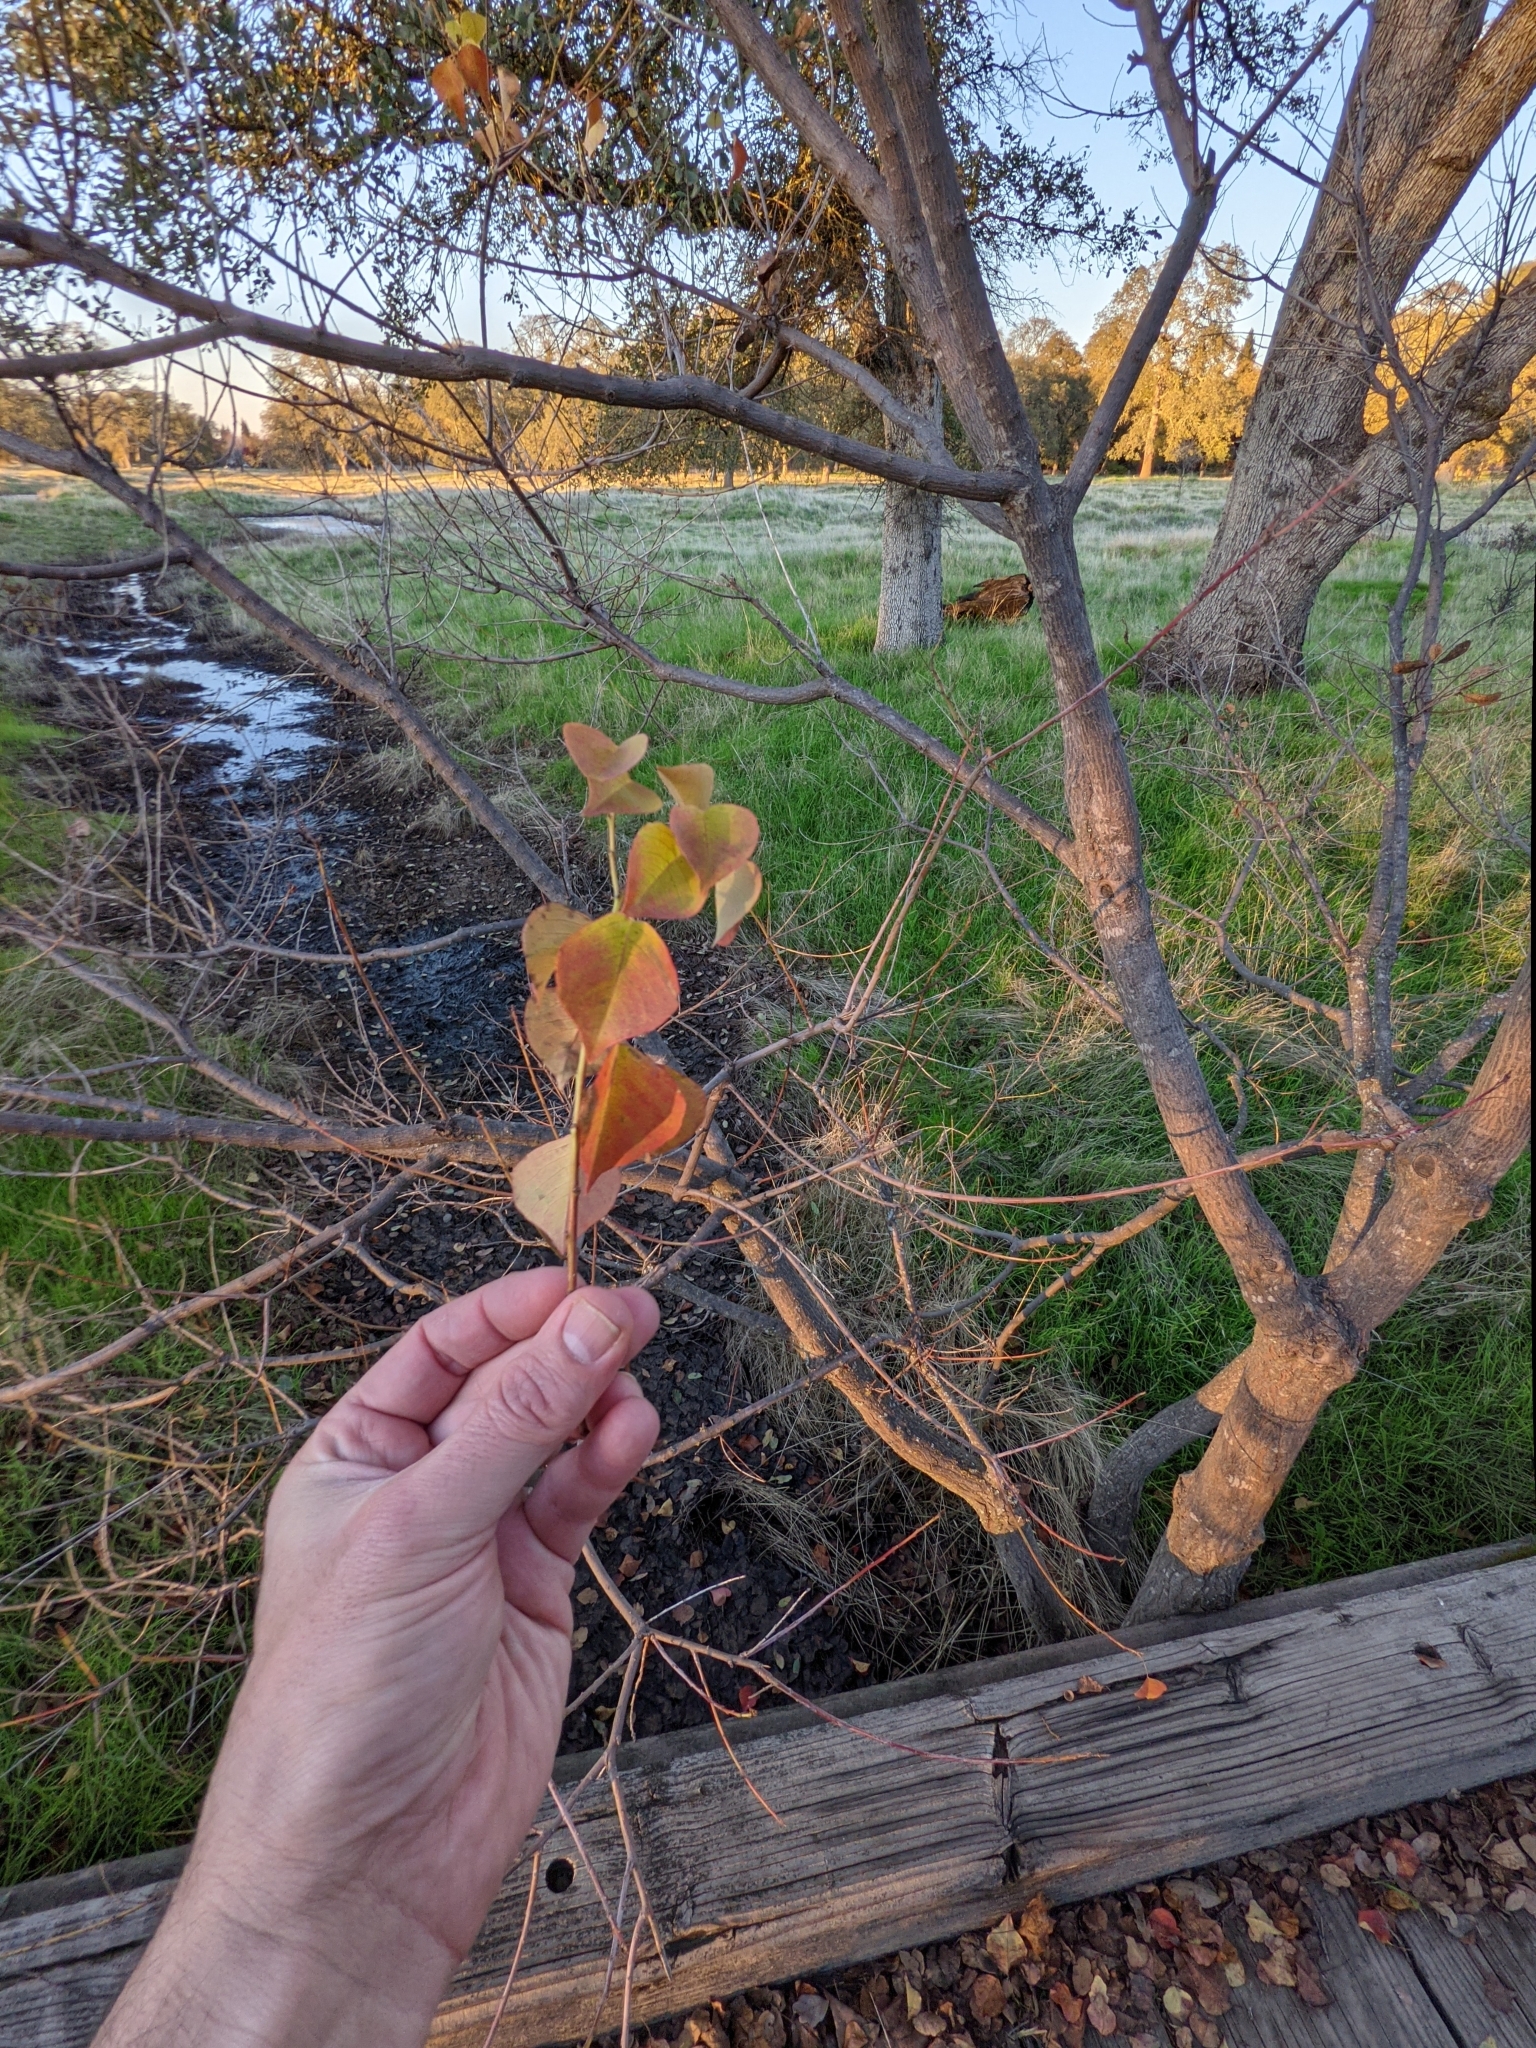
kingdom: Plantae
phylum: Tracheophyta
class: Magnoliopsida
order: Malpighiales
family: Euphorbiaceae
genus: Triadica
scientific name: Triadica sebifera
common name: Chinese tallow
